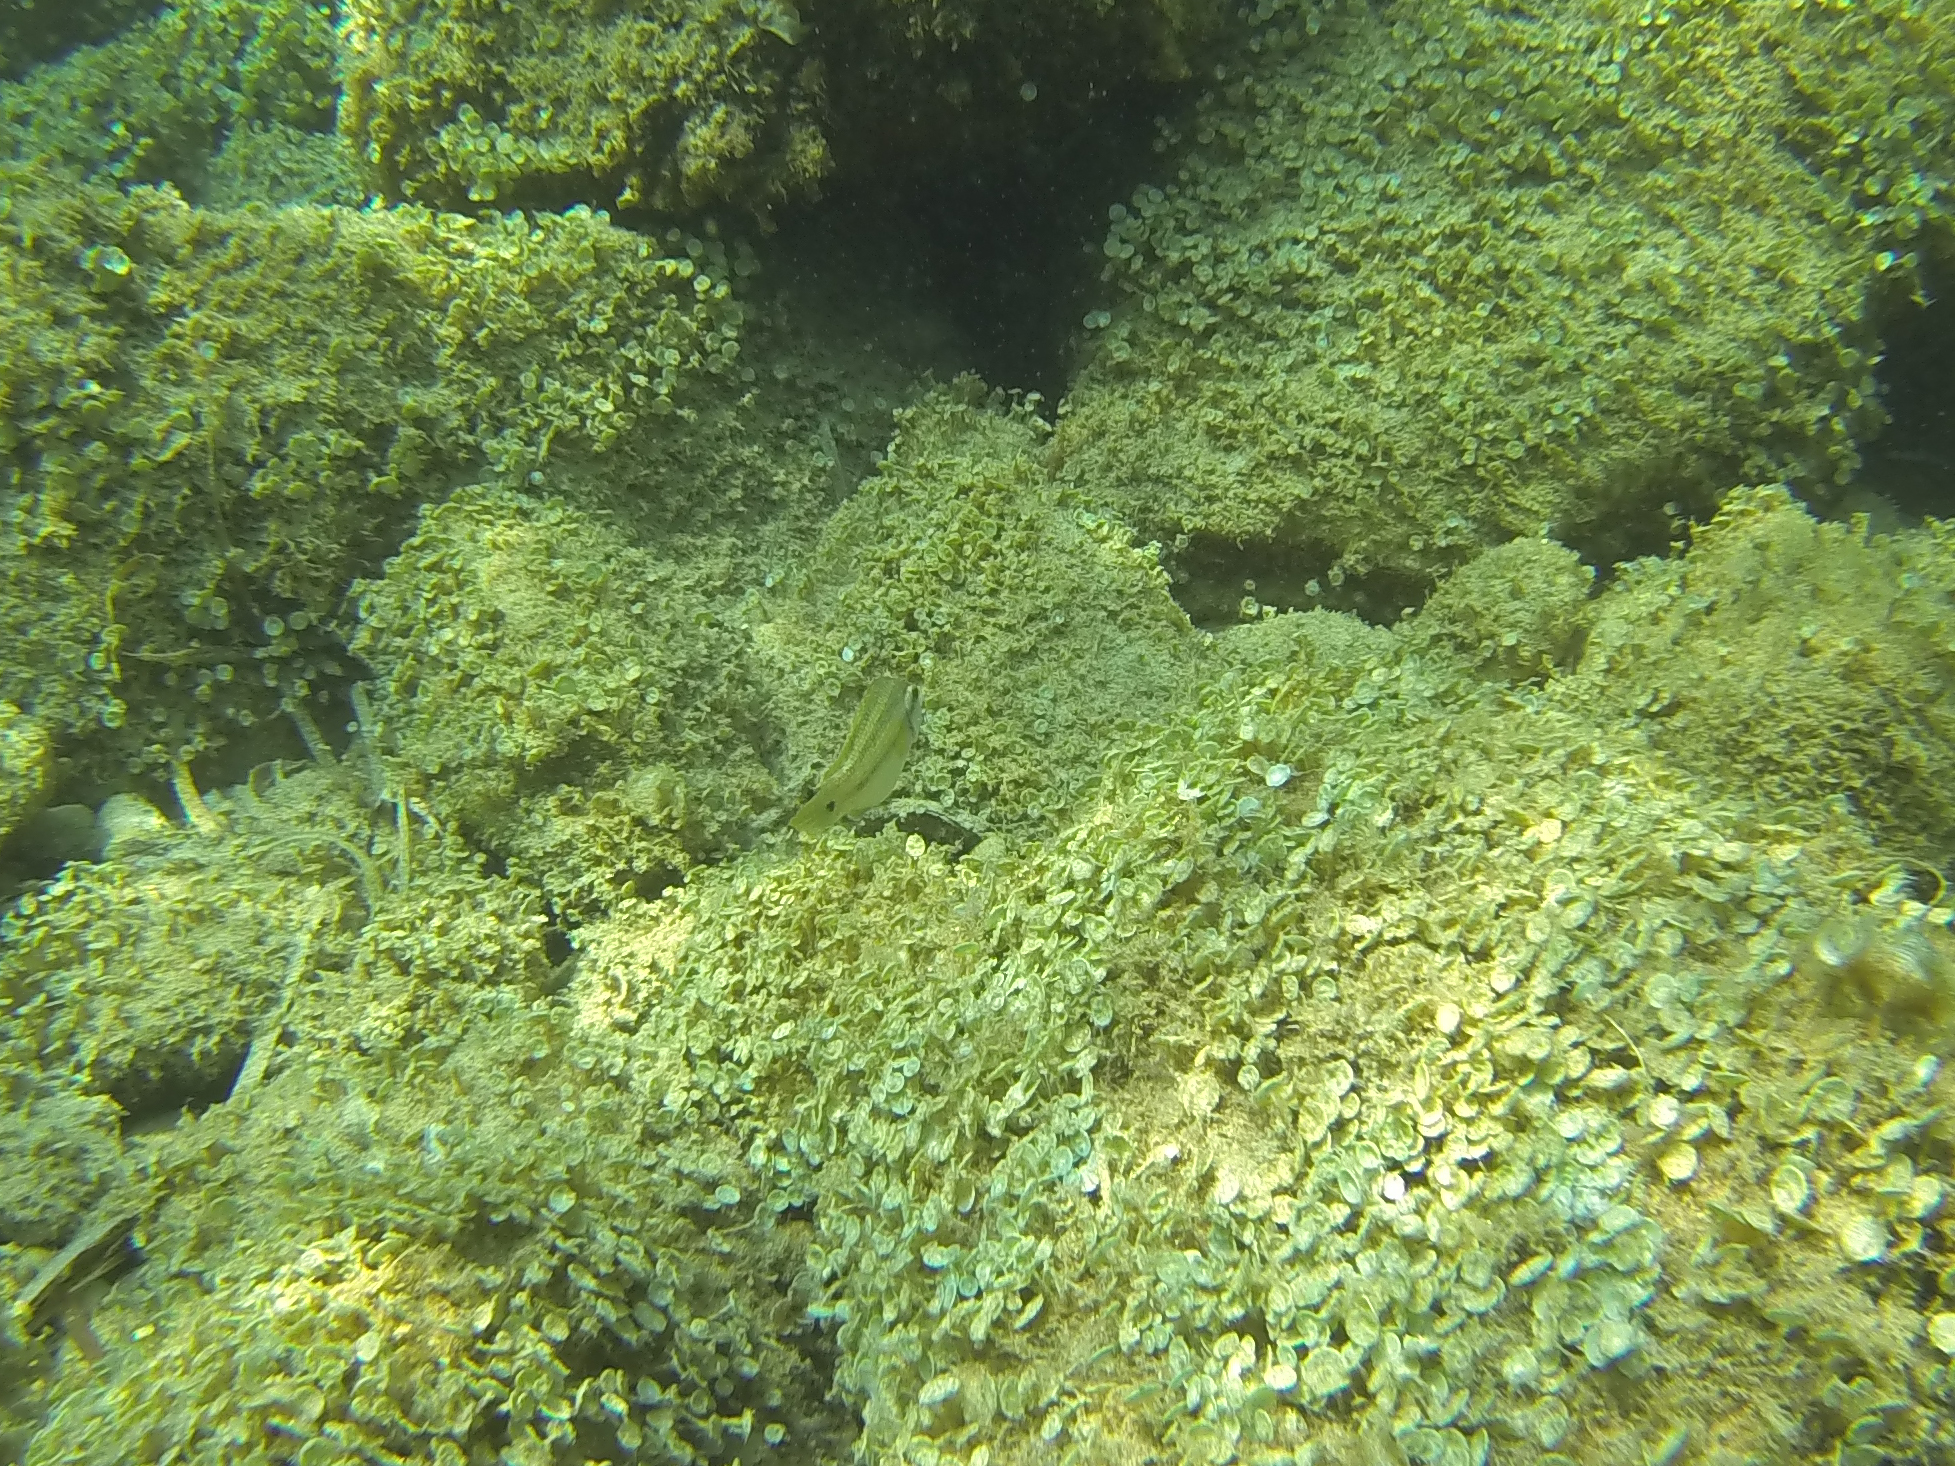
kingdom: Animalia
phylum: Chordata
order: Perciformes
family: Labridae
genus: Symphodus
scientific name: Symphodus tinca
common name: Peacock wrasse
